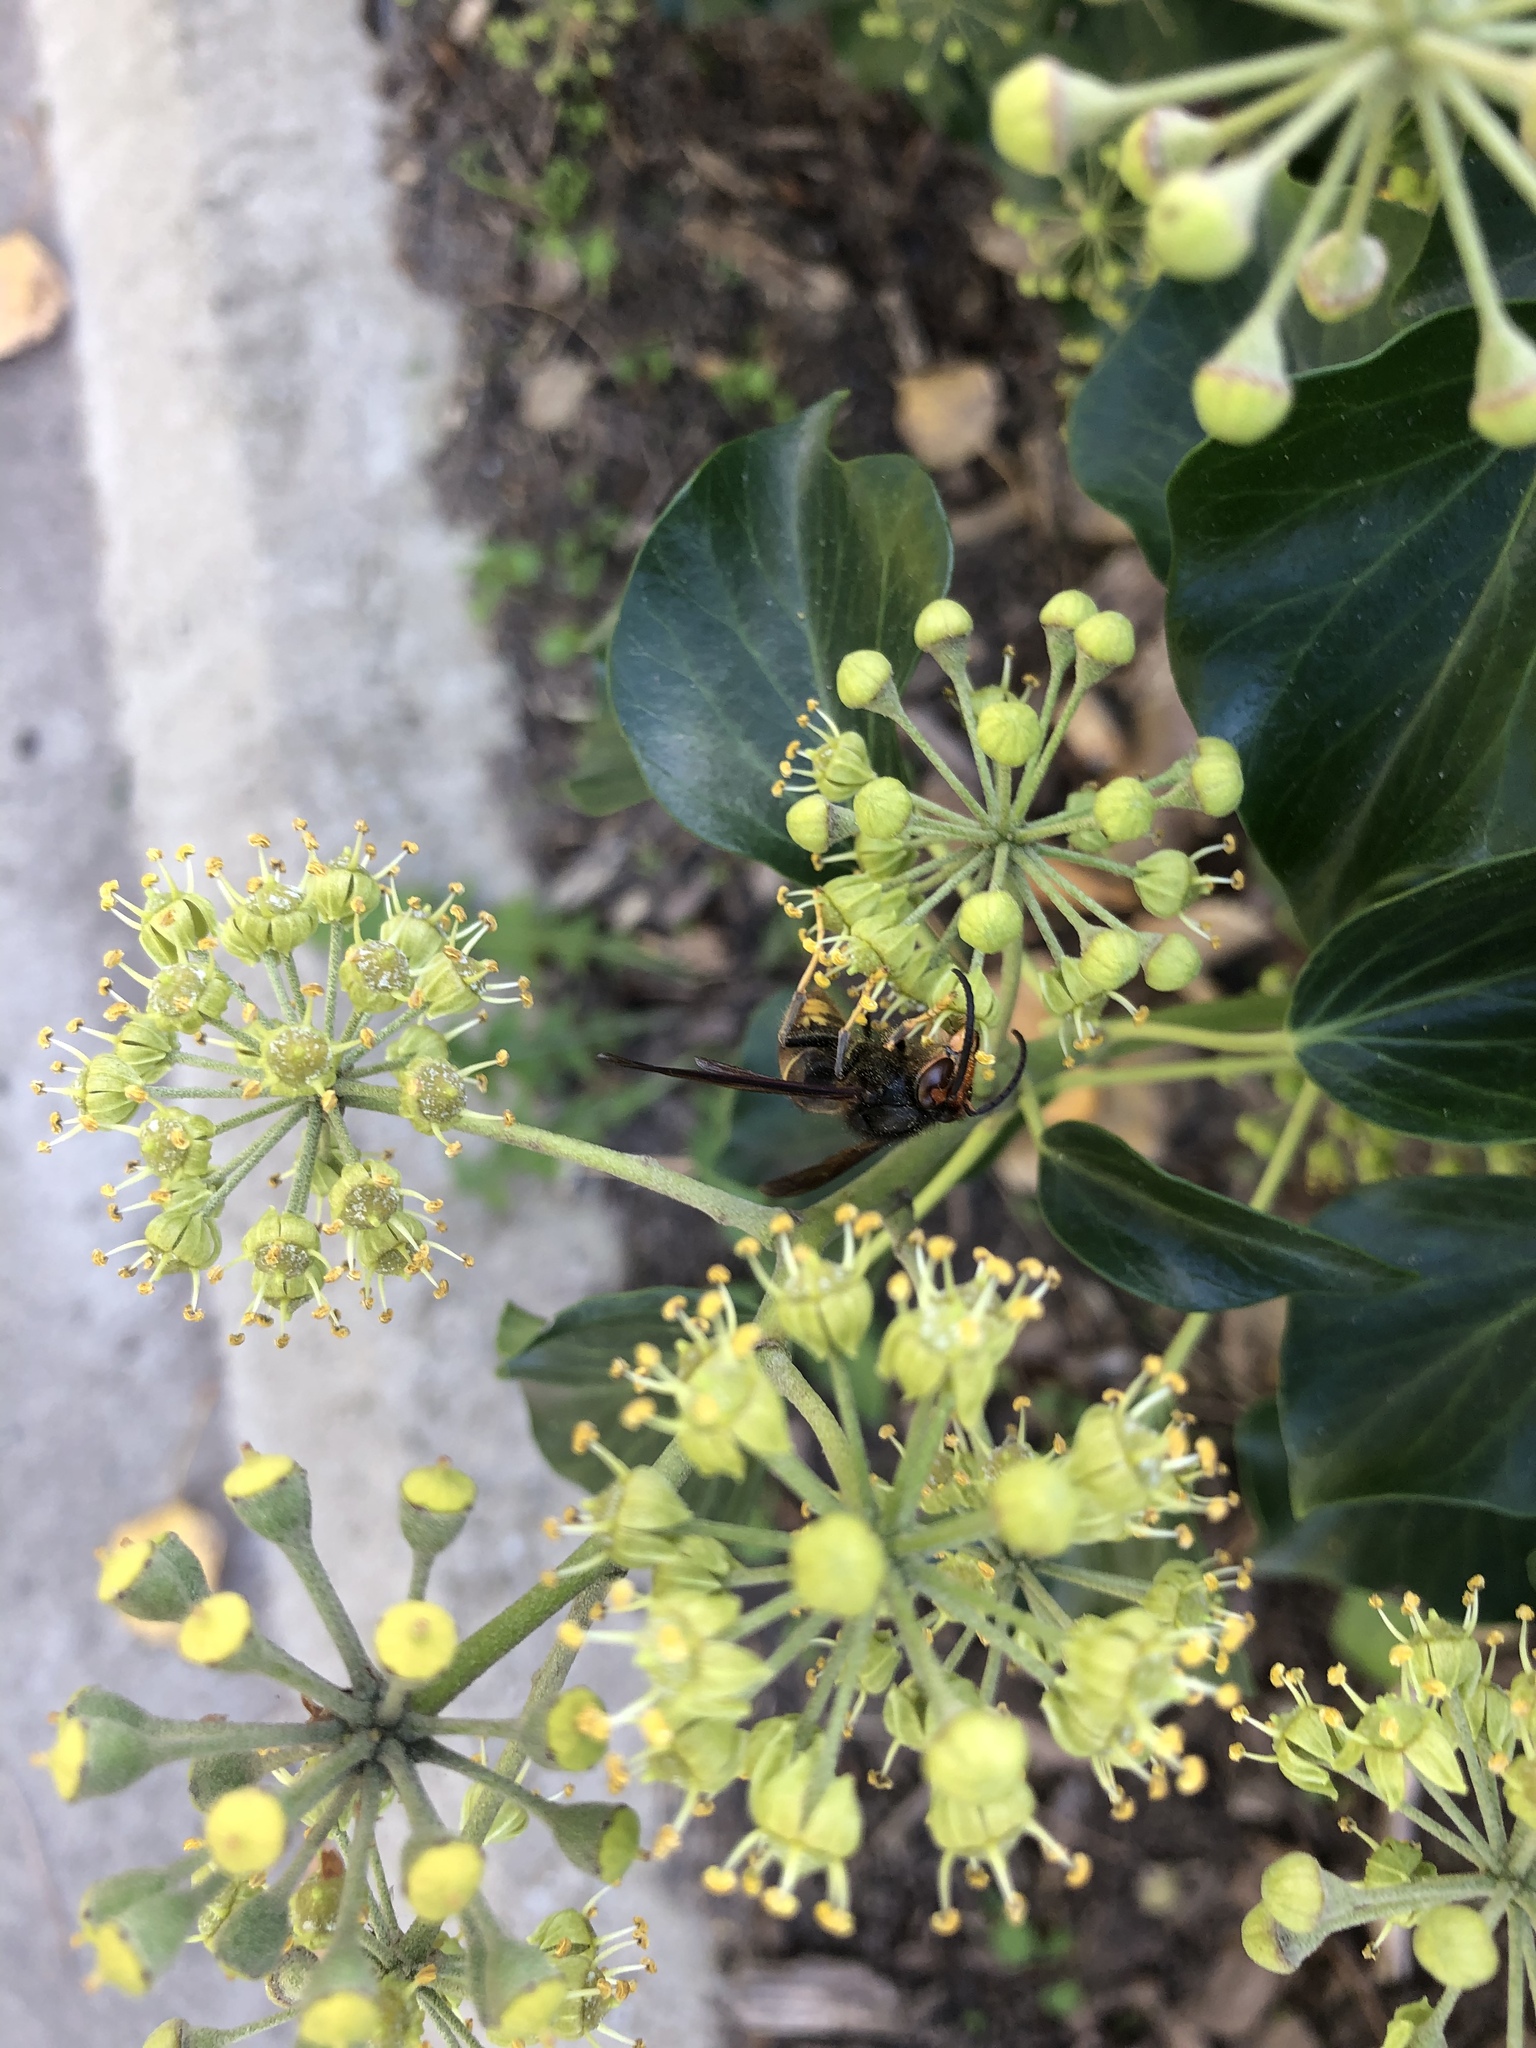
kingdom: Animalia
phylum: Arthropoda
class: Insecta
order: Hymenoptera
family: Vespidae
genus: Vespa
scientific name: Vespa velutina
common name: Asian hornet
